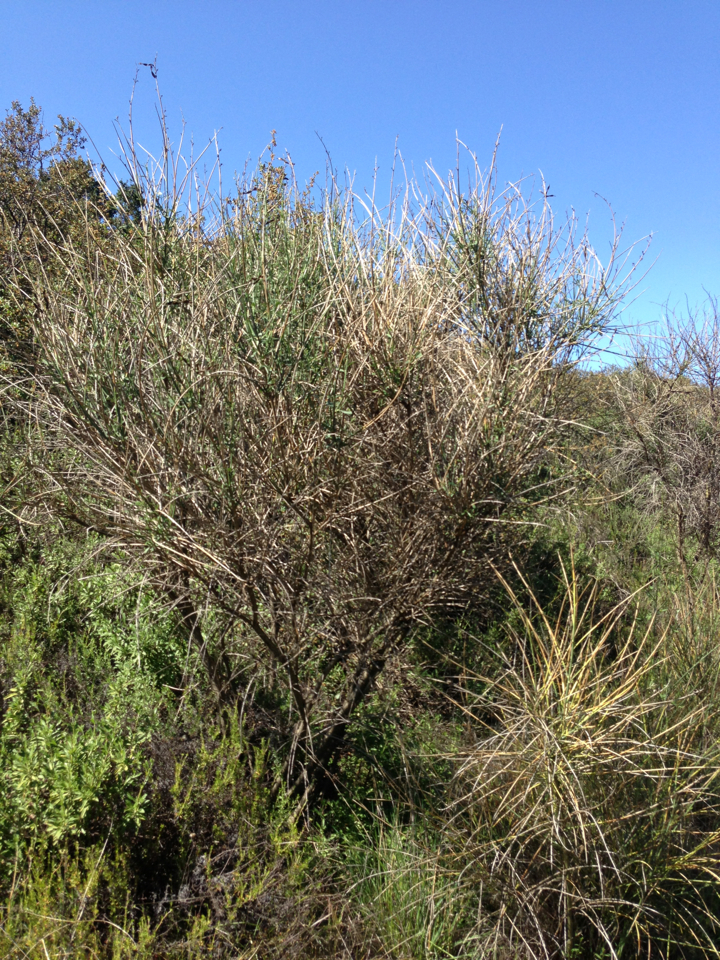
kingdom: Plantae
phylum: Tracheophyta
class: Magnoliopsida
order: Fabales
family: Fabaceae
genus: Spartium
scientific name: Spartium junceum
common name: Spanish broom
